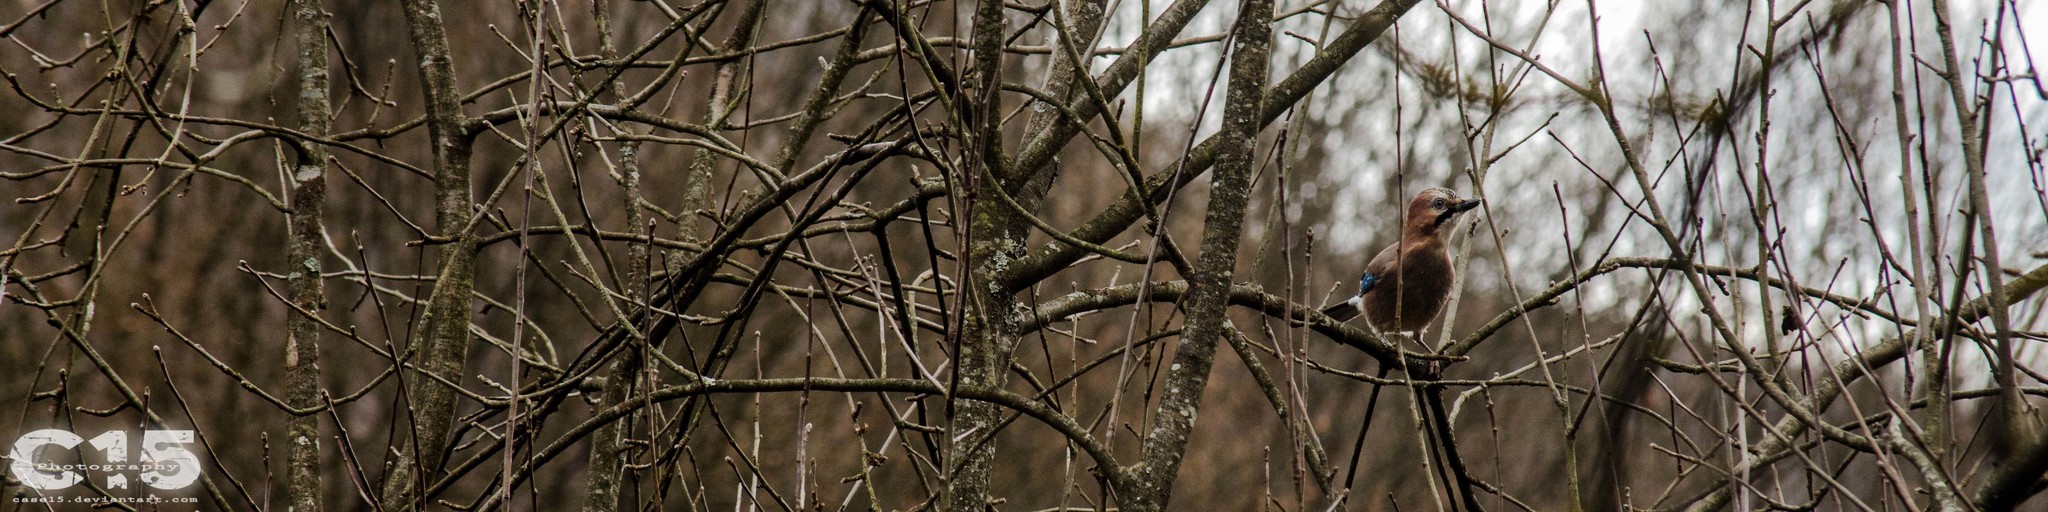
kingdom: Animalia
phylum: Chordata
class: Aves
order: Passeriformes
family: Corvidae
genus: Garrulus
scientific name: Garrulus glandarius
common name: Eurasian jay
